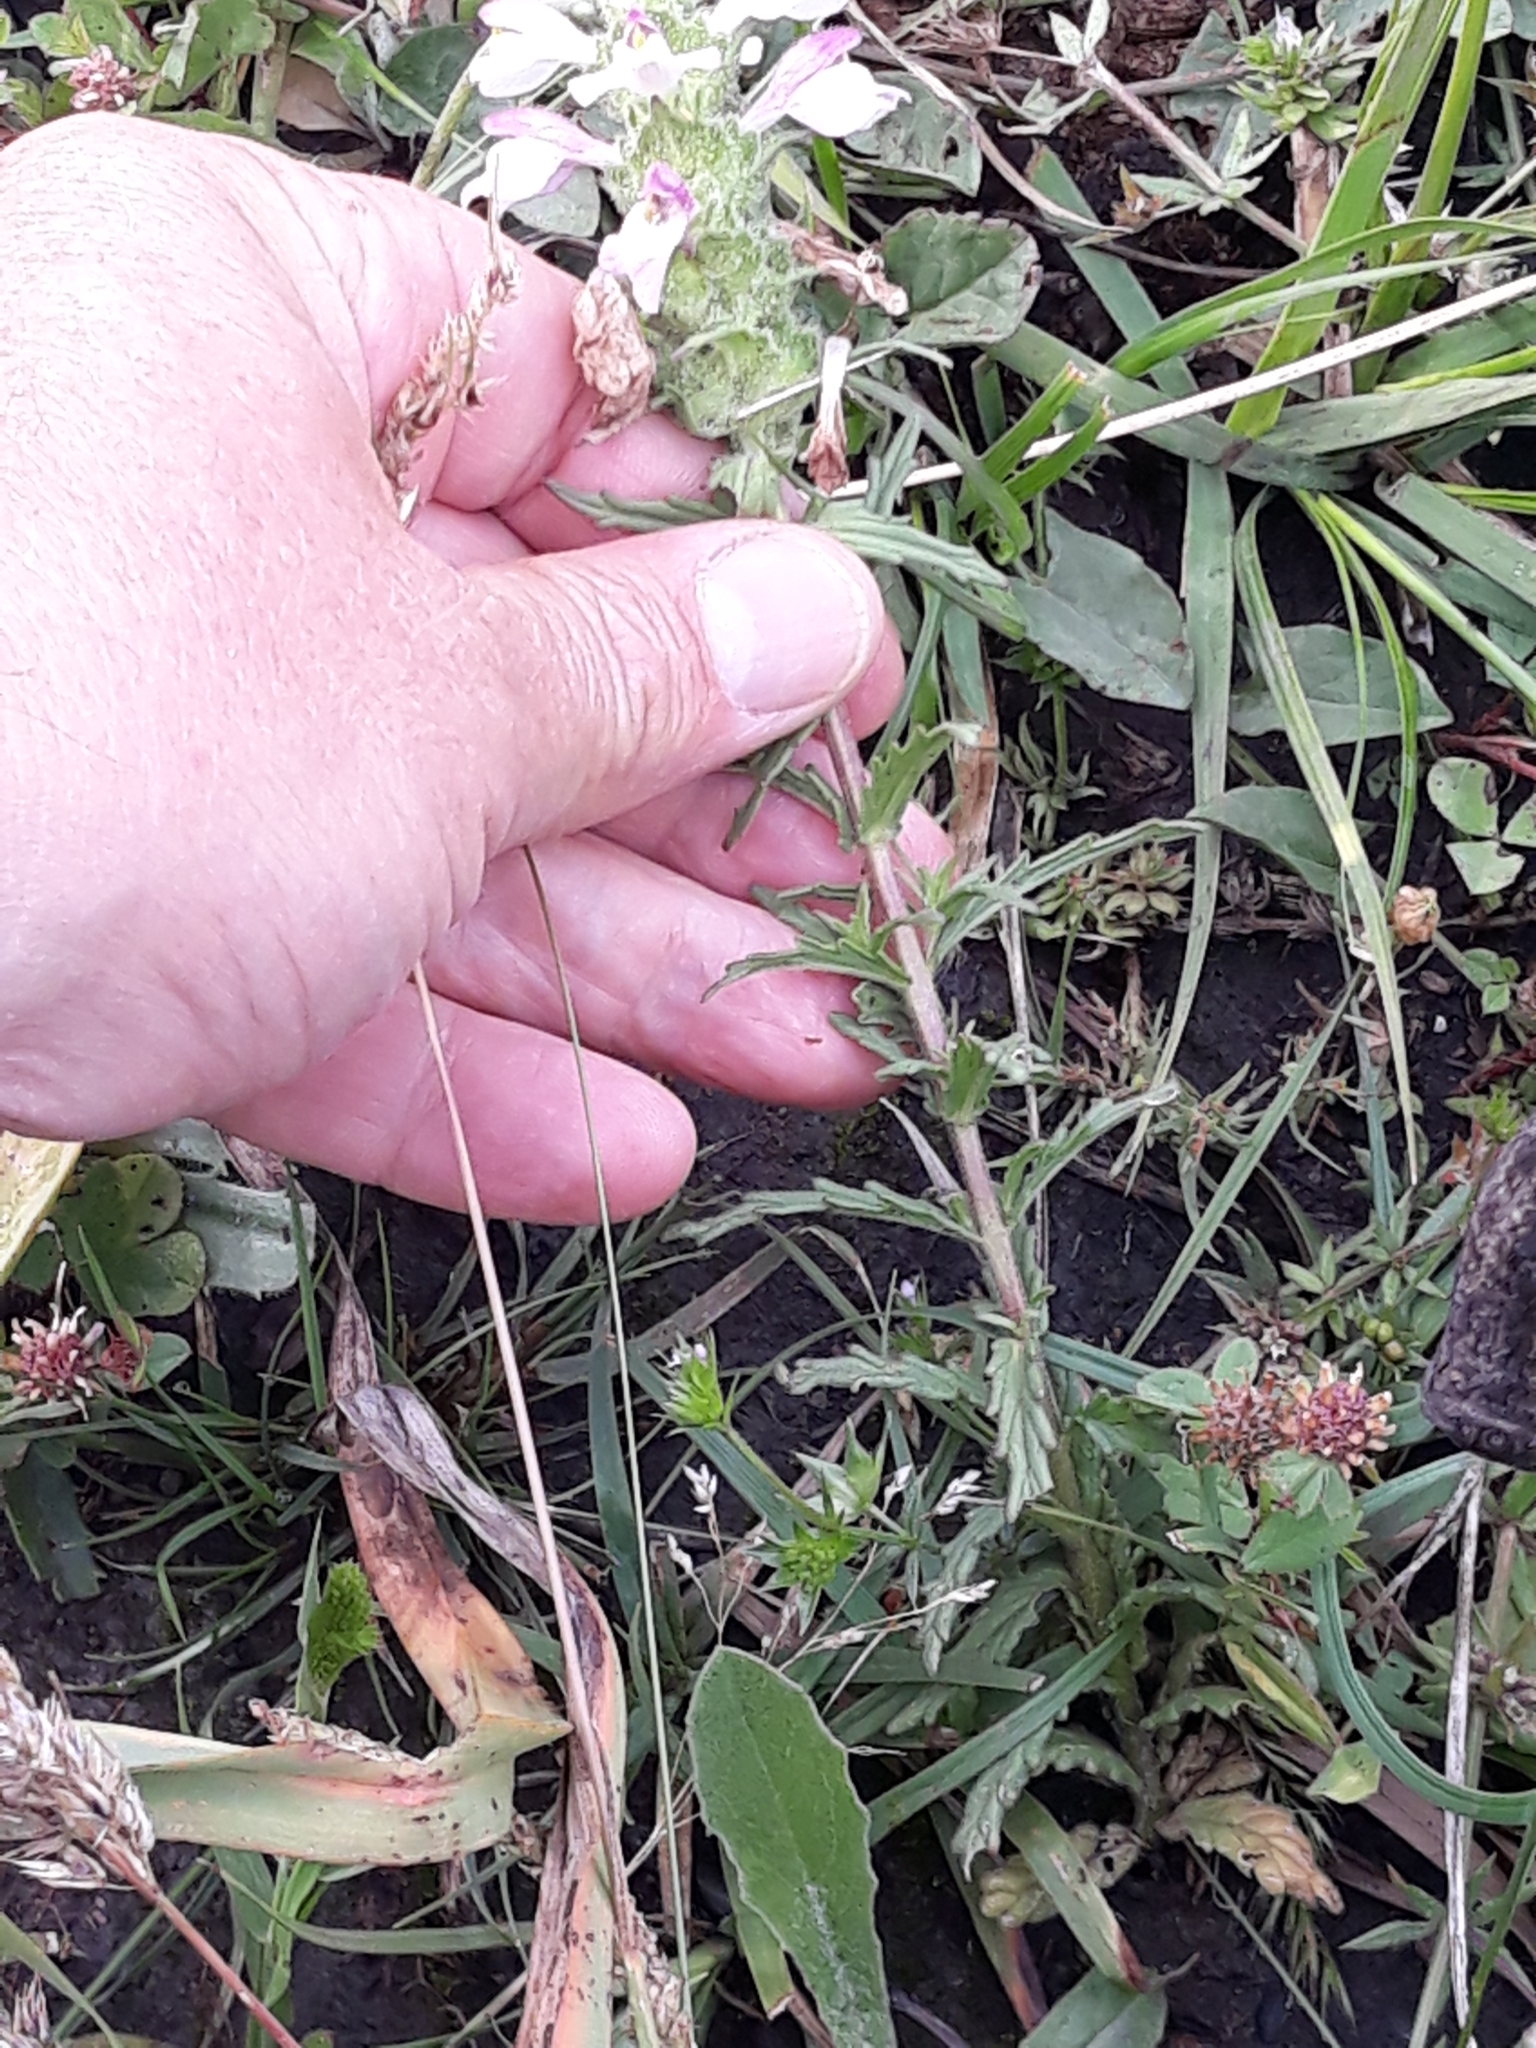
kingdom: Plantae
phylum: Tracheophyta
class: Magnoliopsida
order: Lamiales
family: Orobanchaceae
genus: Bellardia
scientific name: Bellardia trixago
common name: Mediterranean lineseed
